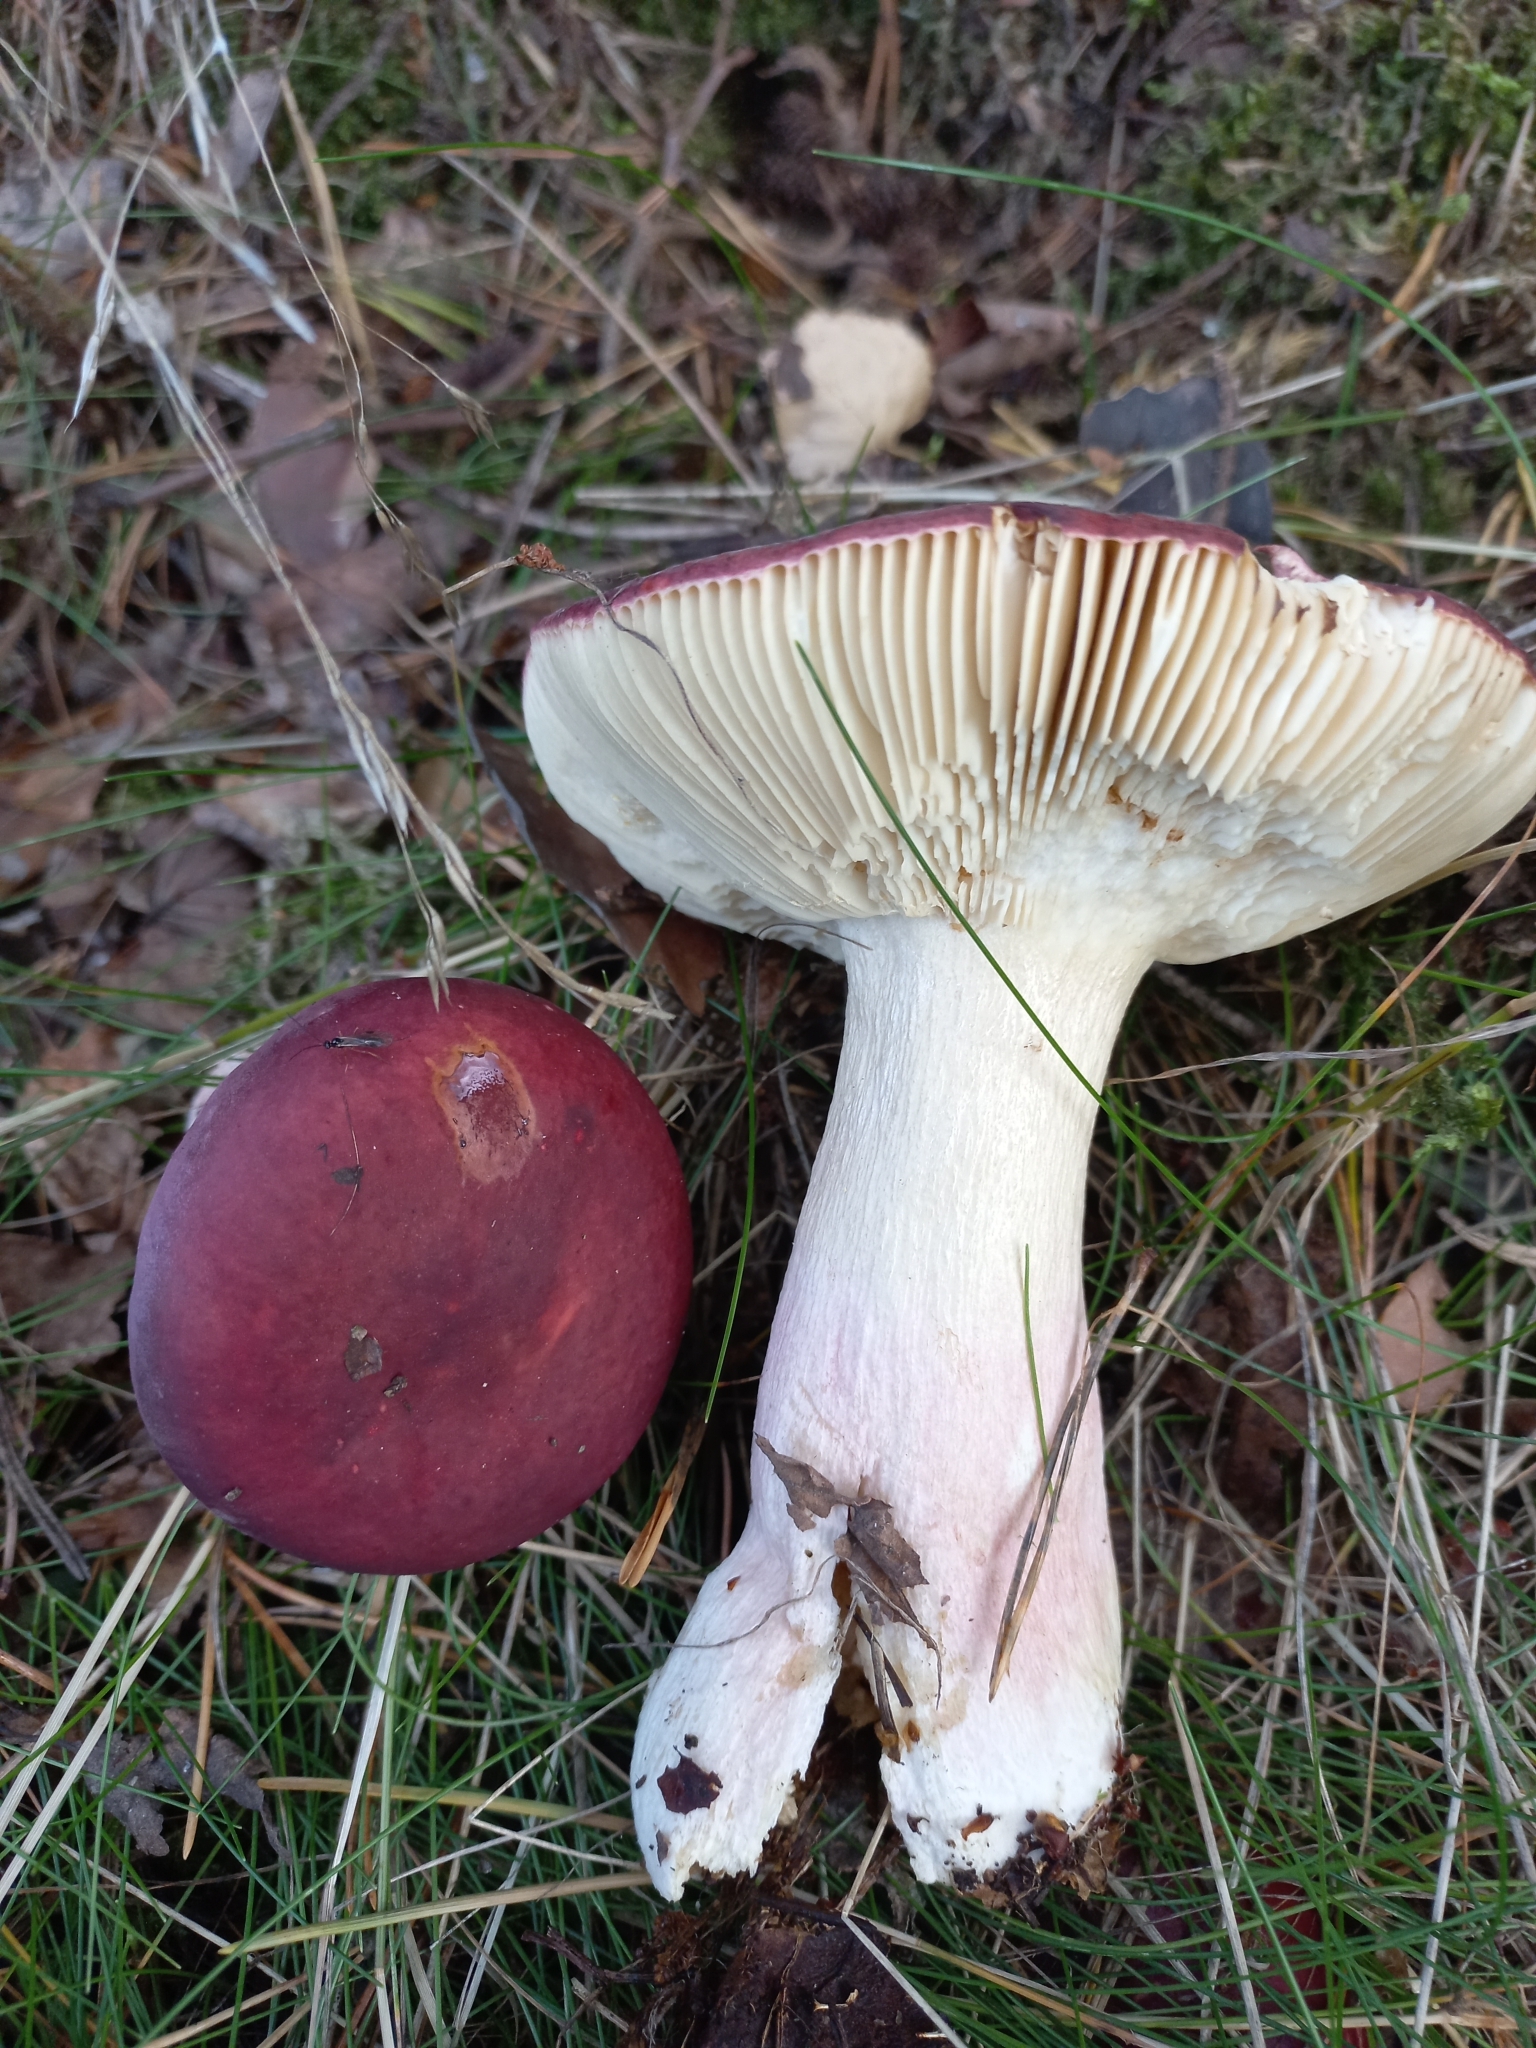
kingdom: Fungi
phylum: Basidiomycota
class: Agaricomycetes
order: Russulales
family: Russulaceae
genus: Russula
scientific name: Russula xerampelina
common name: Crab brittlegill
